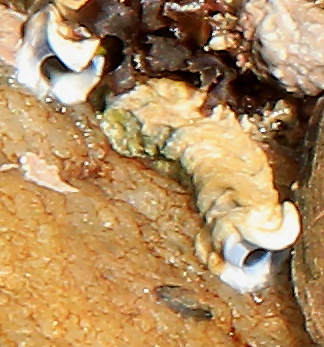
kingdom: Animalia
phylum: Annelida
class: Polychaeta
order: Sabellida
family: Serpulidae
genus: Spirobranchus
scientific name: Spirobranchus kraussii
